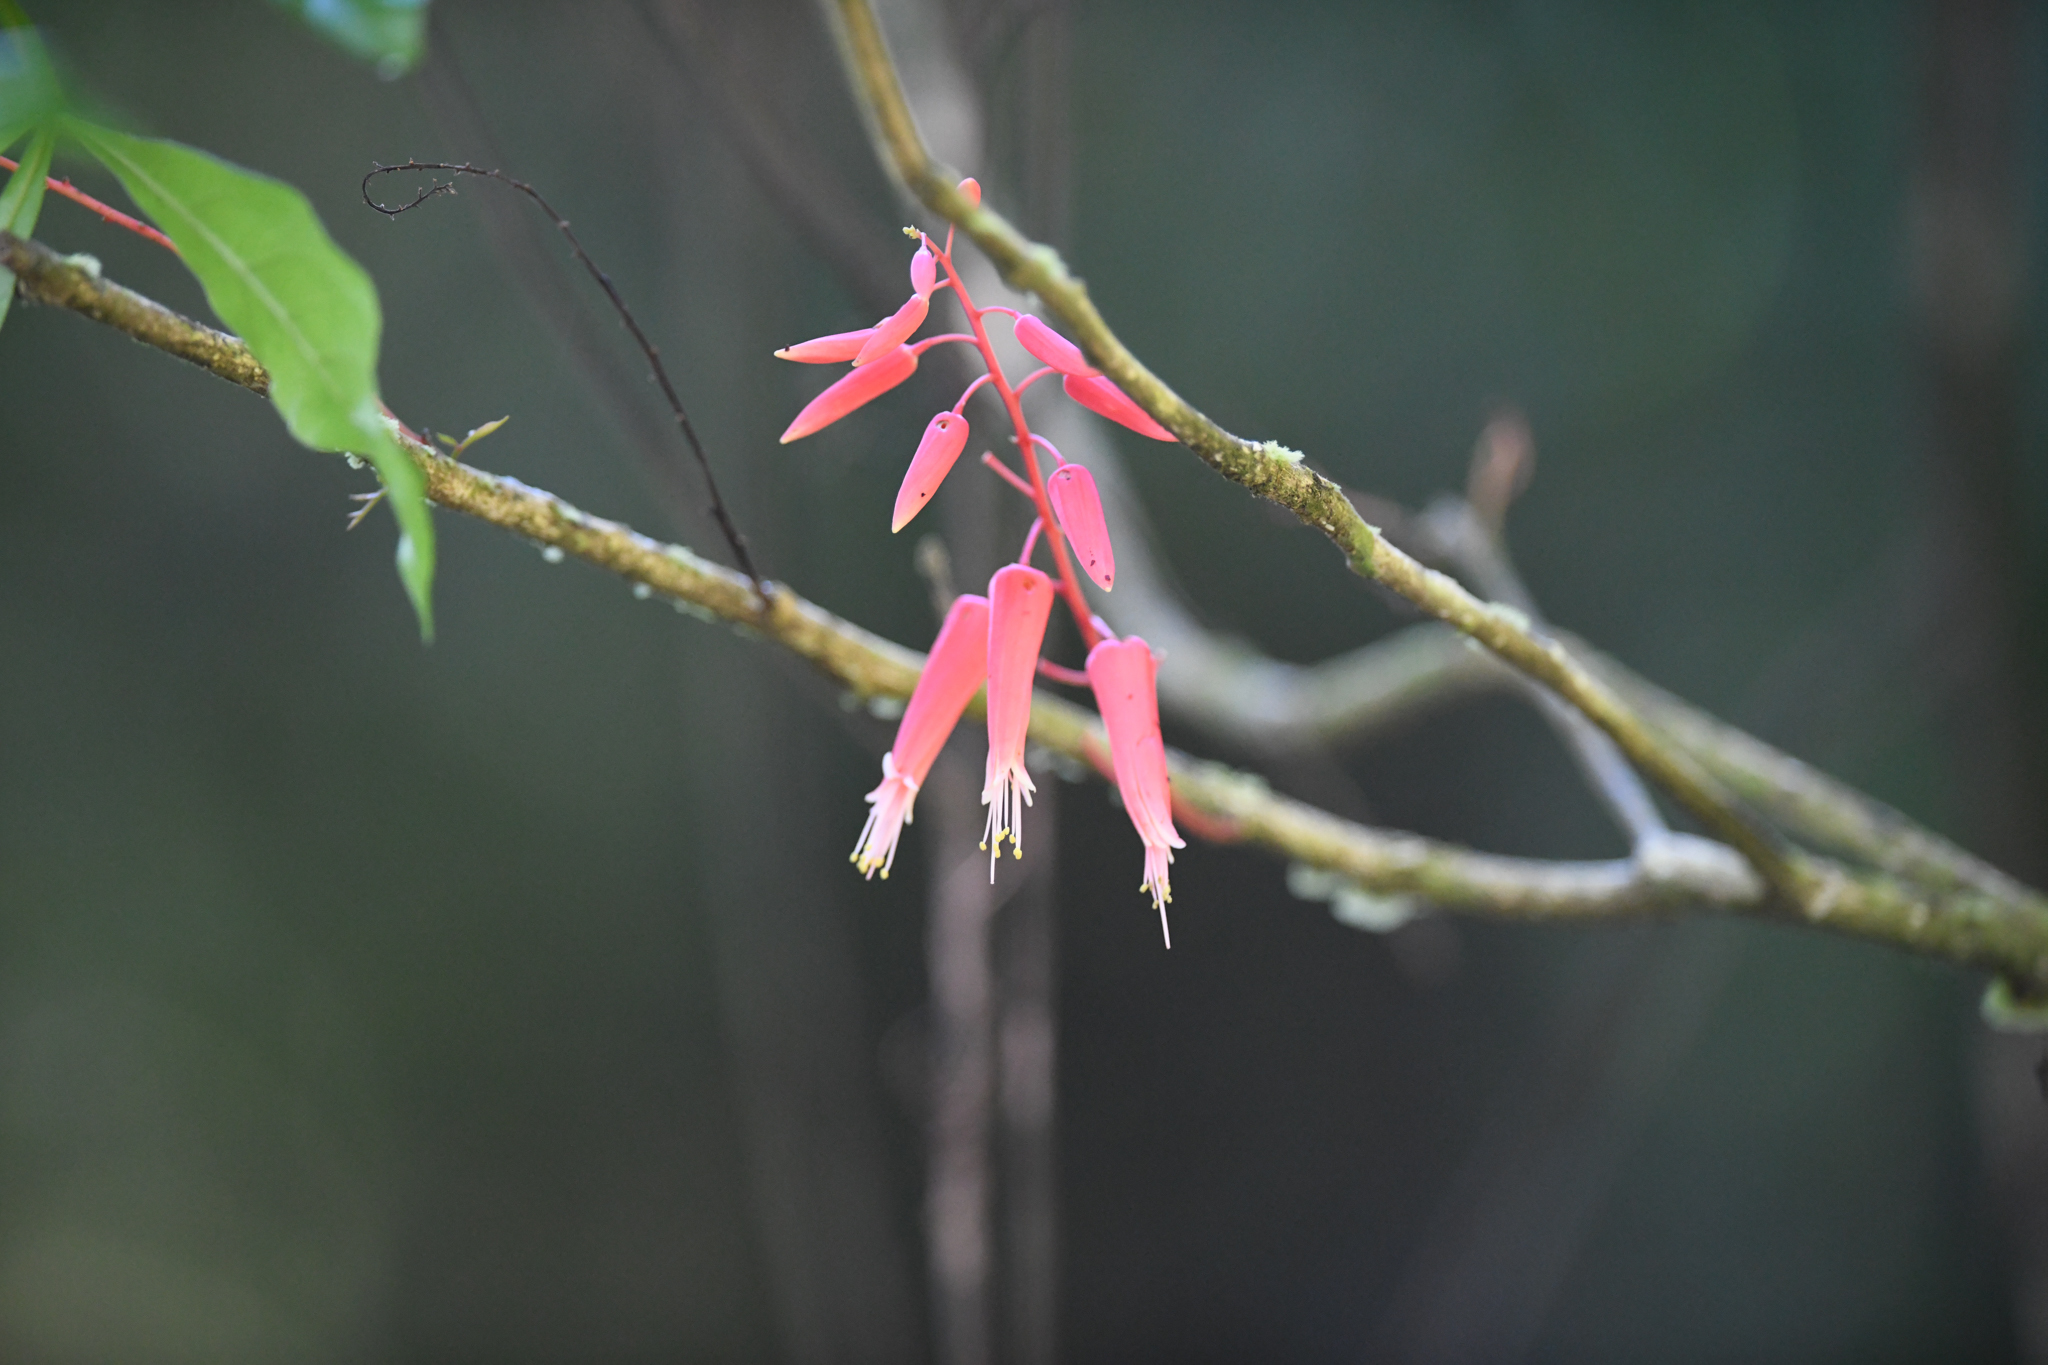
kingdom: Plantae
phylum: Tracheophyta
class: Magnoliopsida
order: Sapindales
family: Simaroubaceae
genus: Quassia
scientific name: Quassia amara
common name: Quassia
